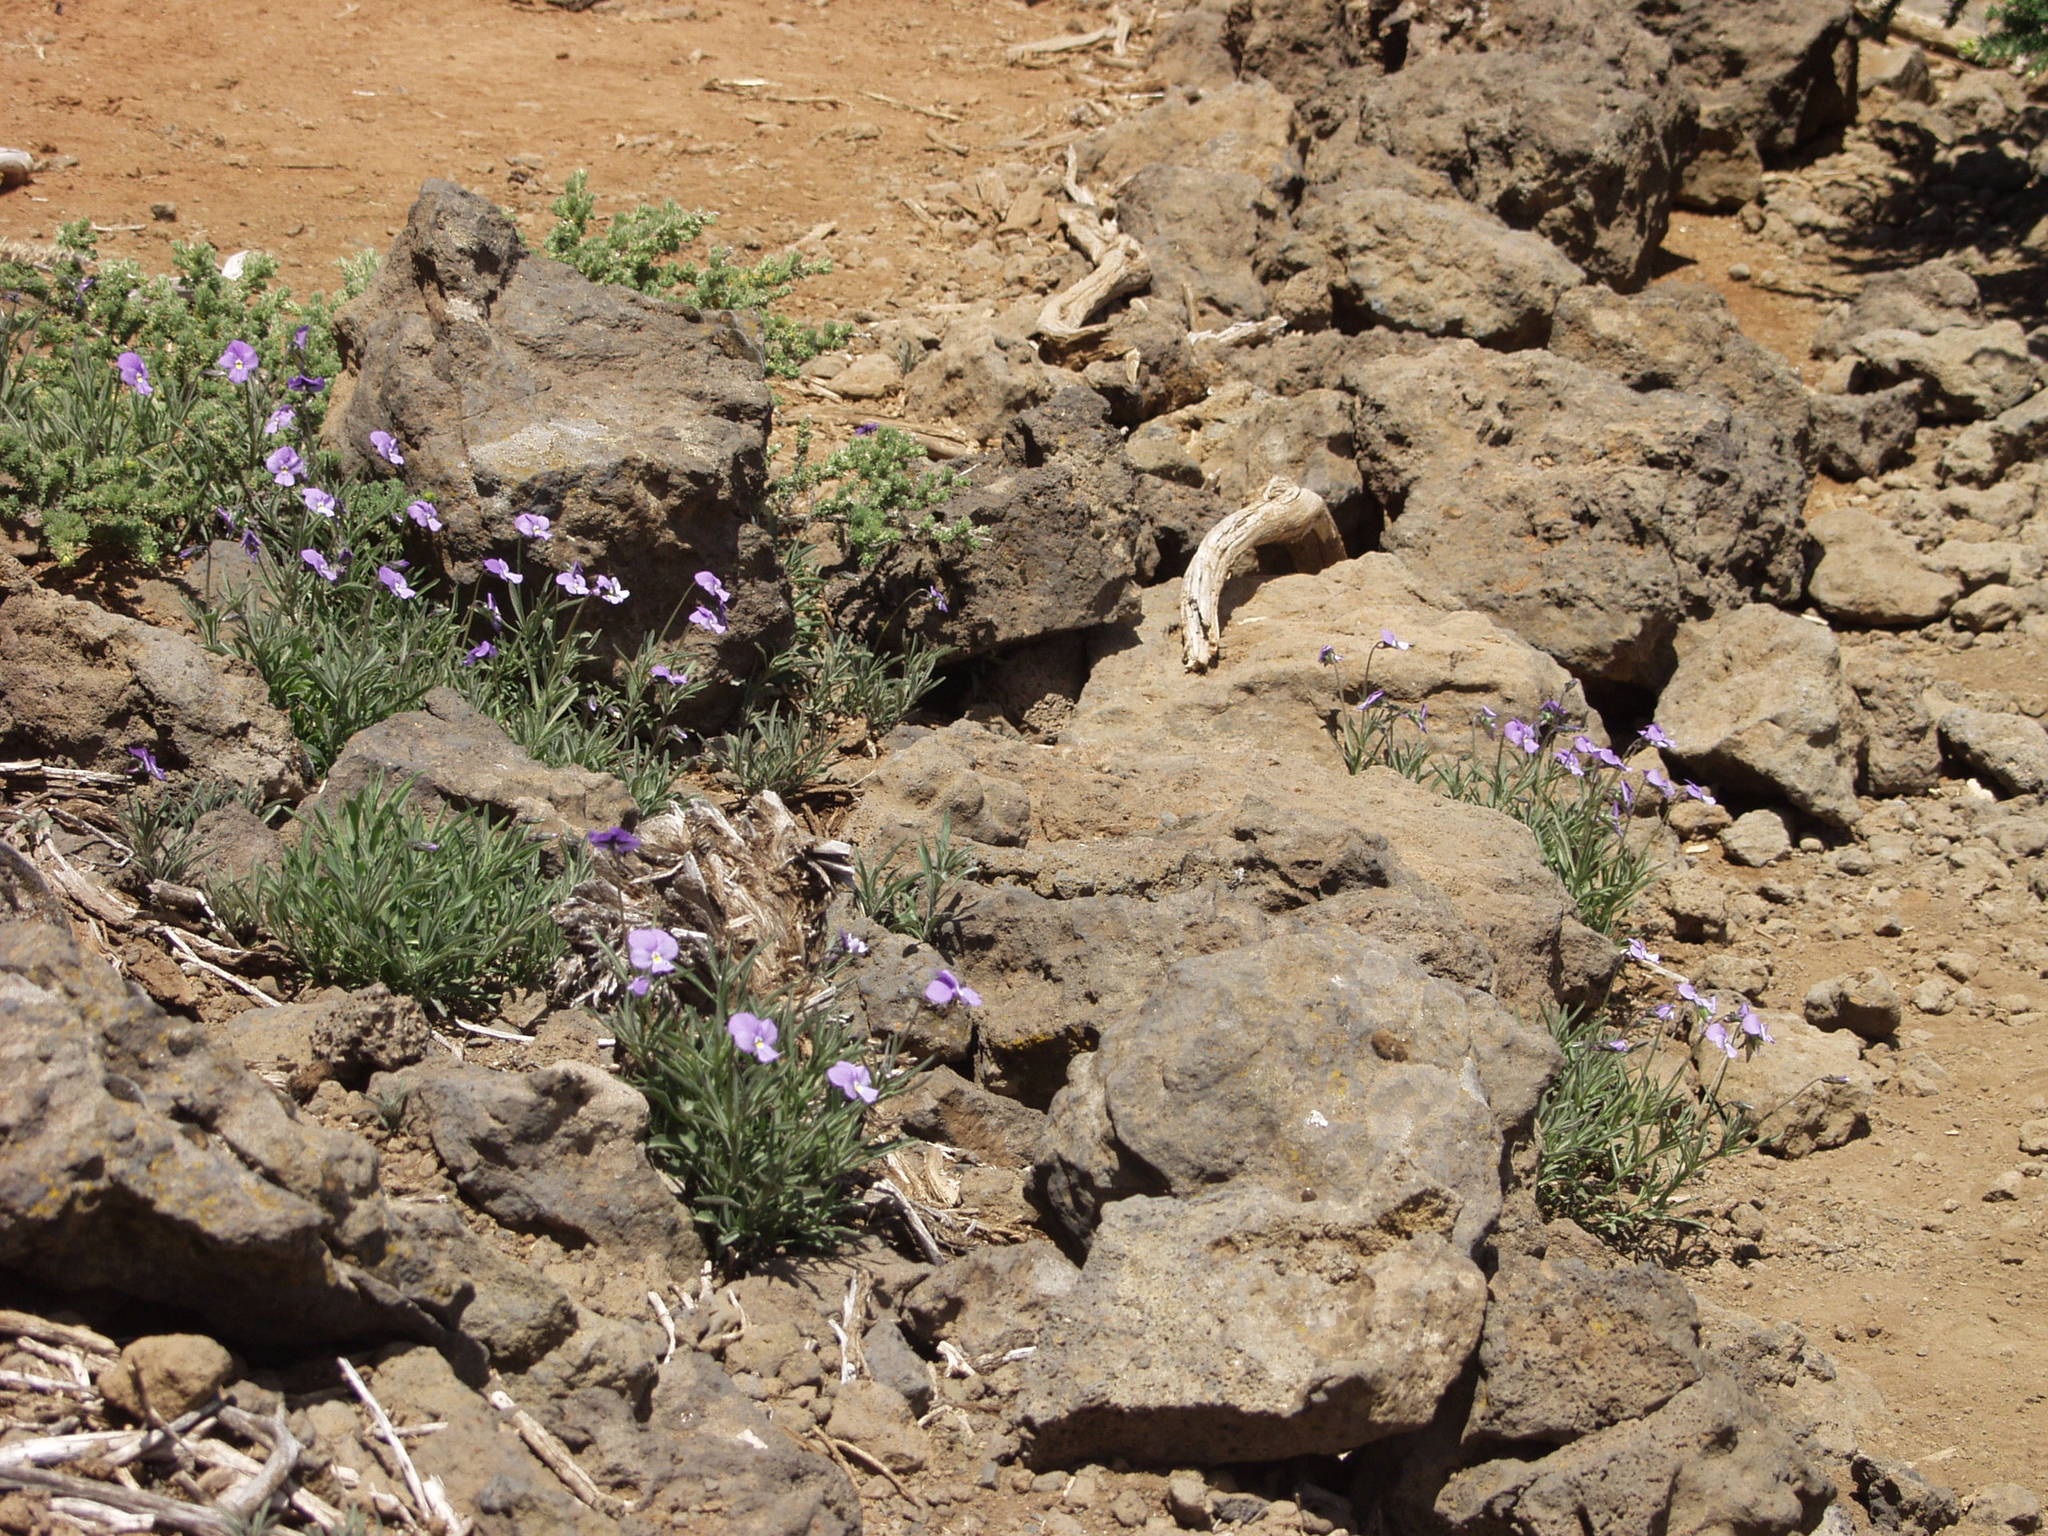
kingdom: Plantae
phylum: Tracheophyta
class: Magnoliopsida
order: Malpighiales
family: Violaceae
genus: Viola
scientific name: Viola palmensis
